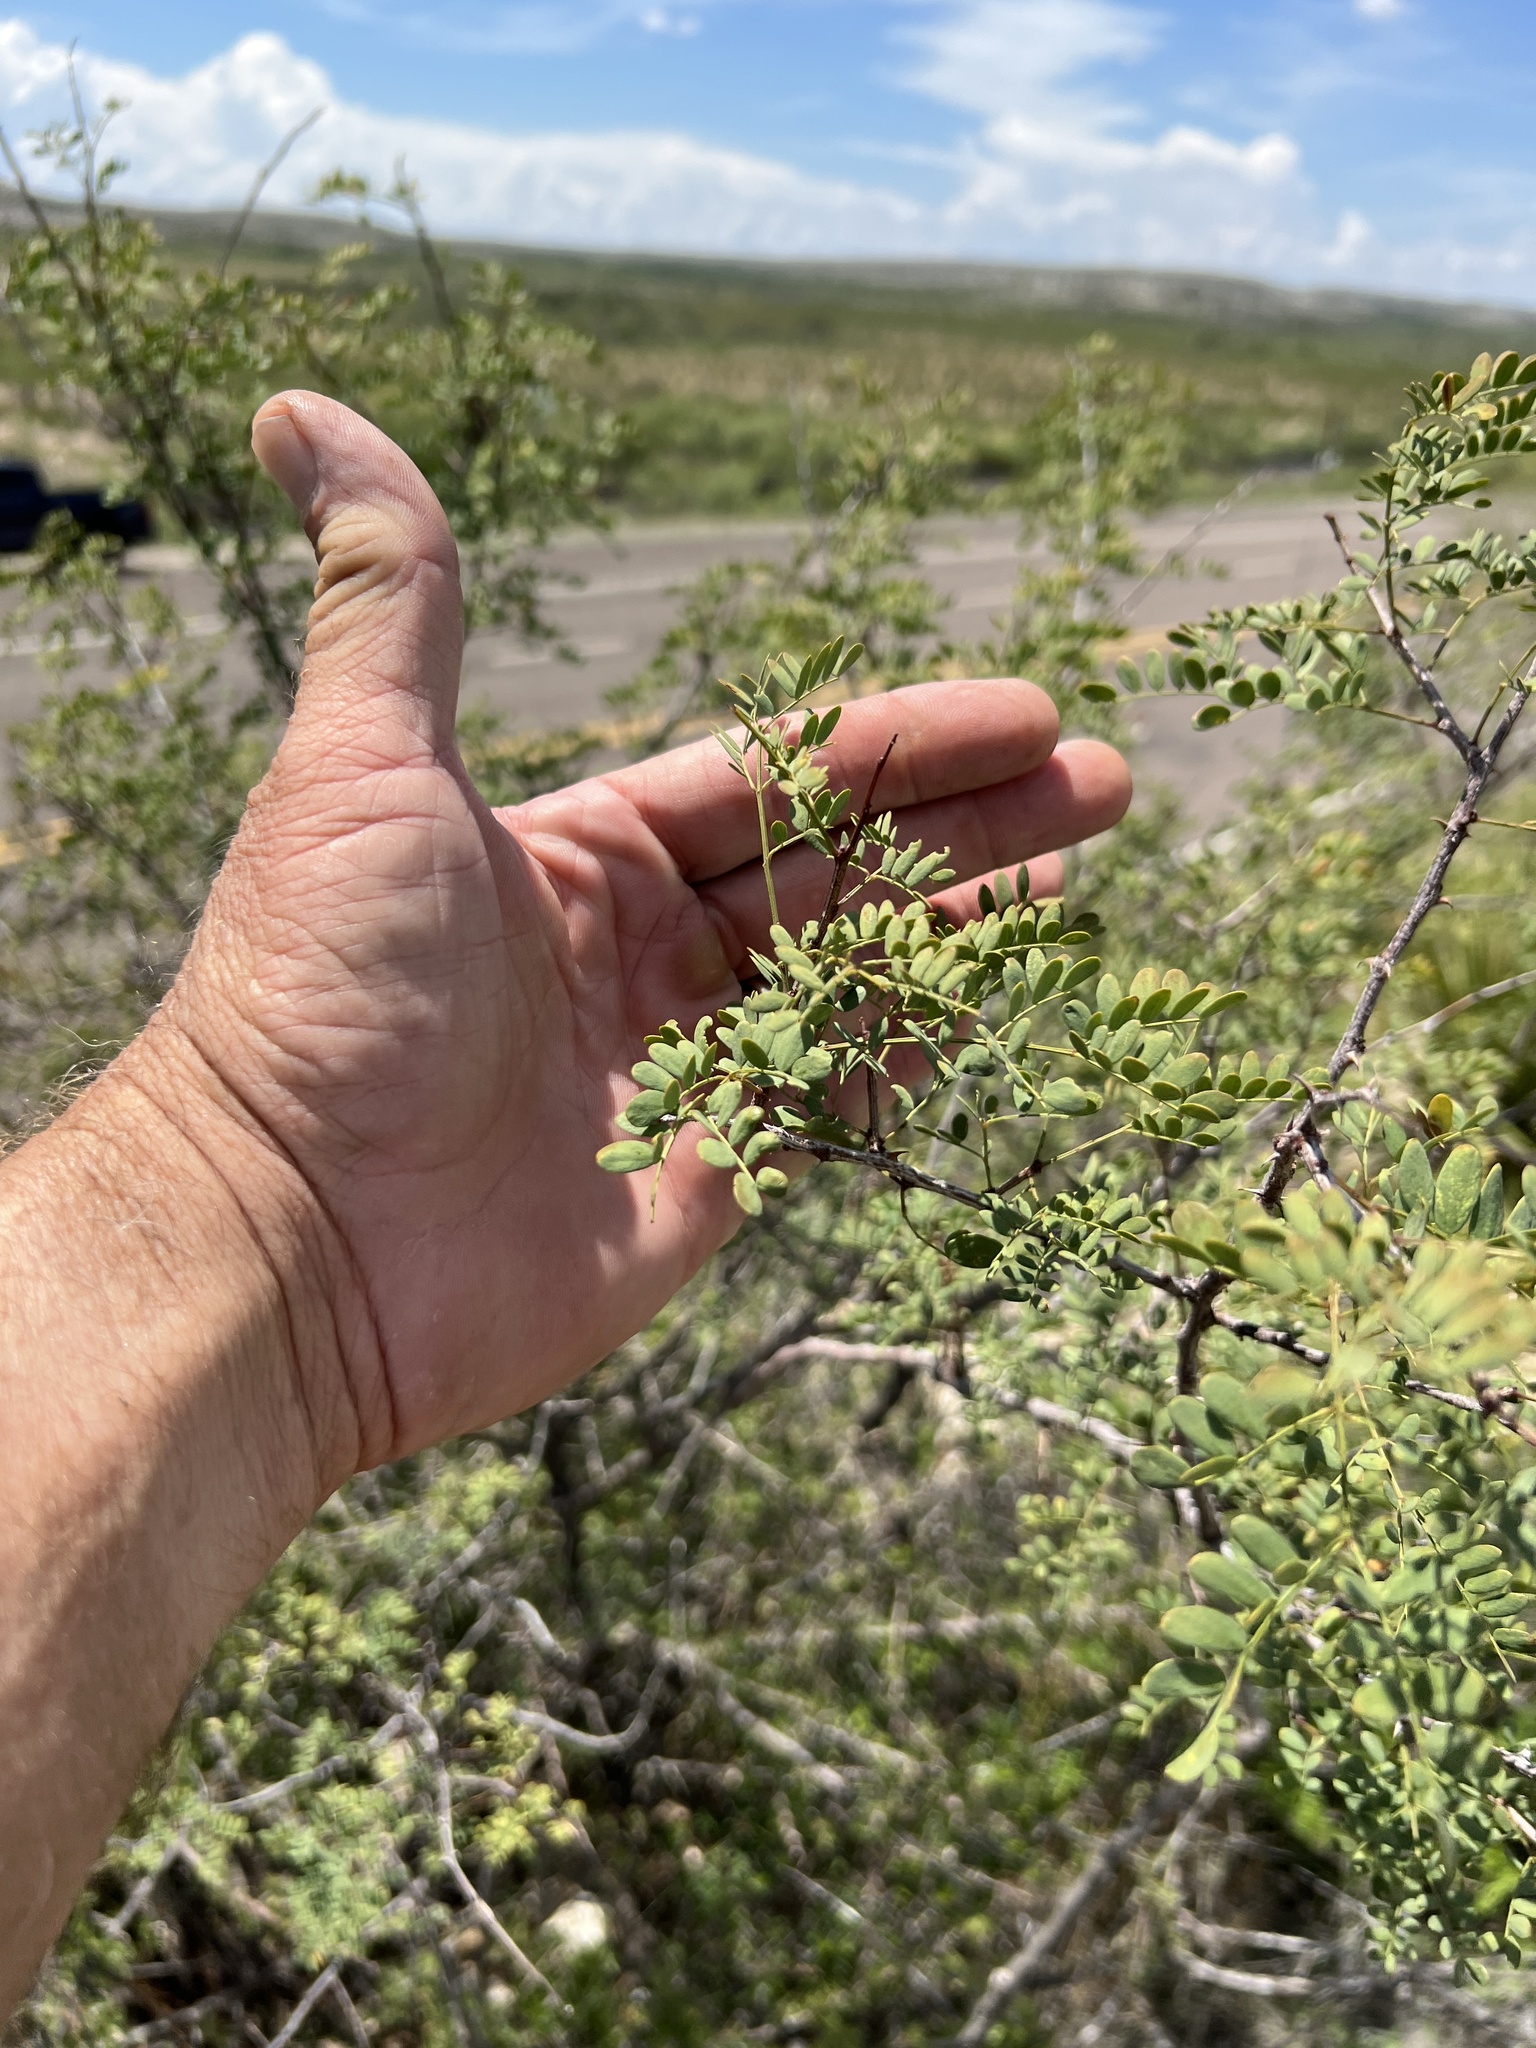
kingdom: Plantae
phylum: Tracheophyta
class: Magnoliopsida
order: Fabales
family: Fabaceae
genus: Senegalia
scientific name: Senegalia roemeriana
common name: Roemer's acacia
